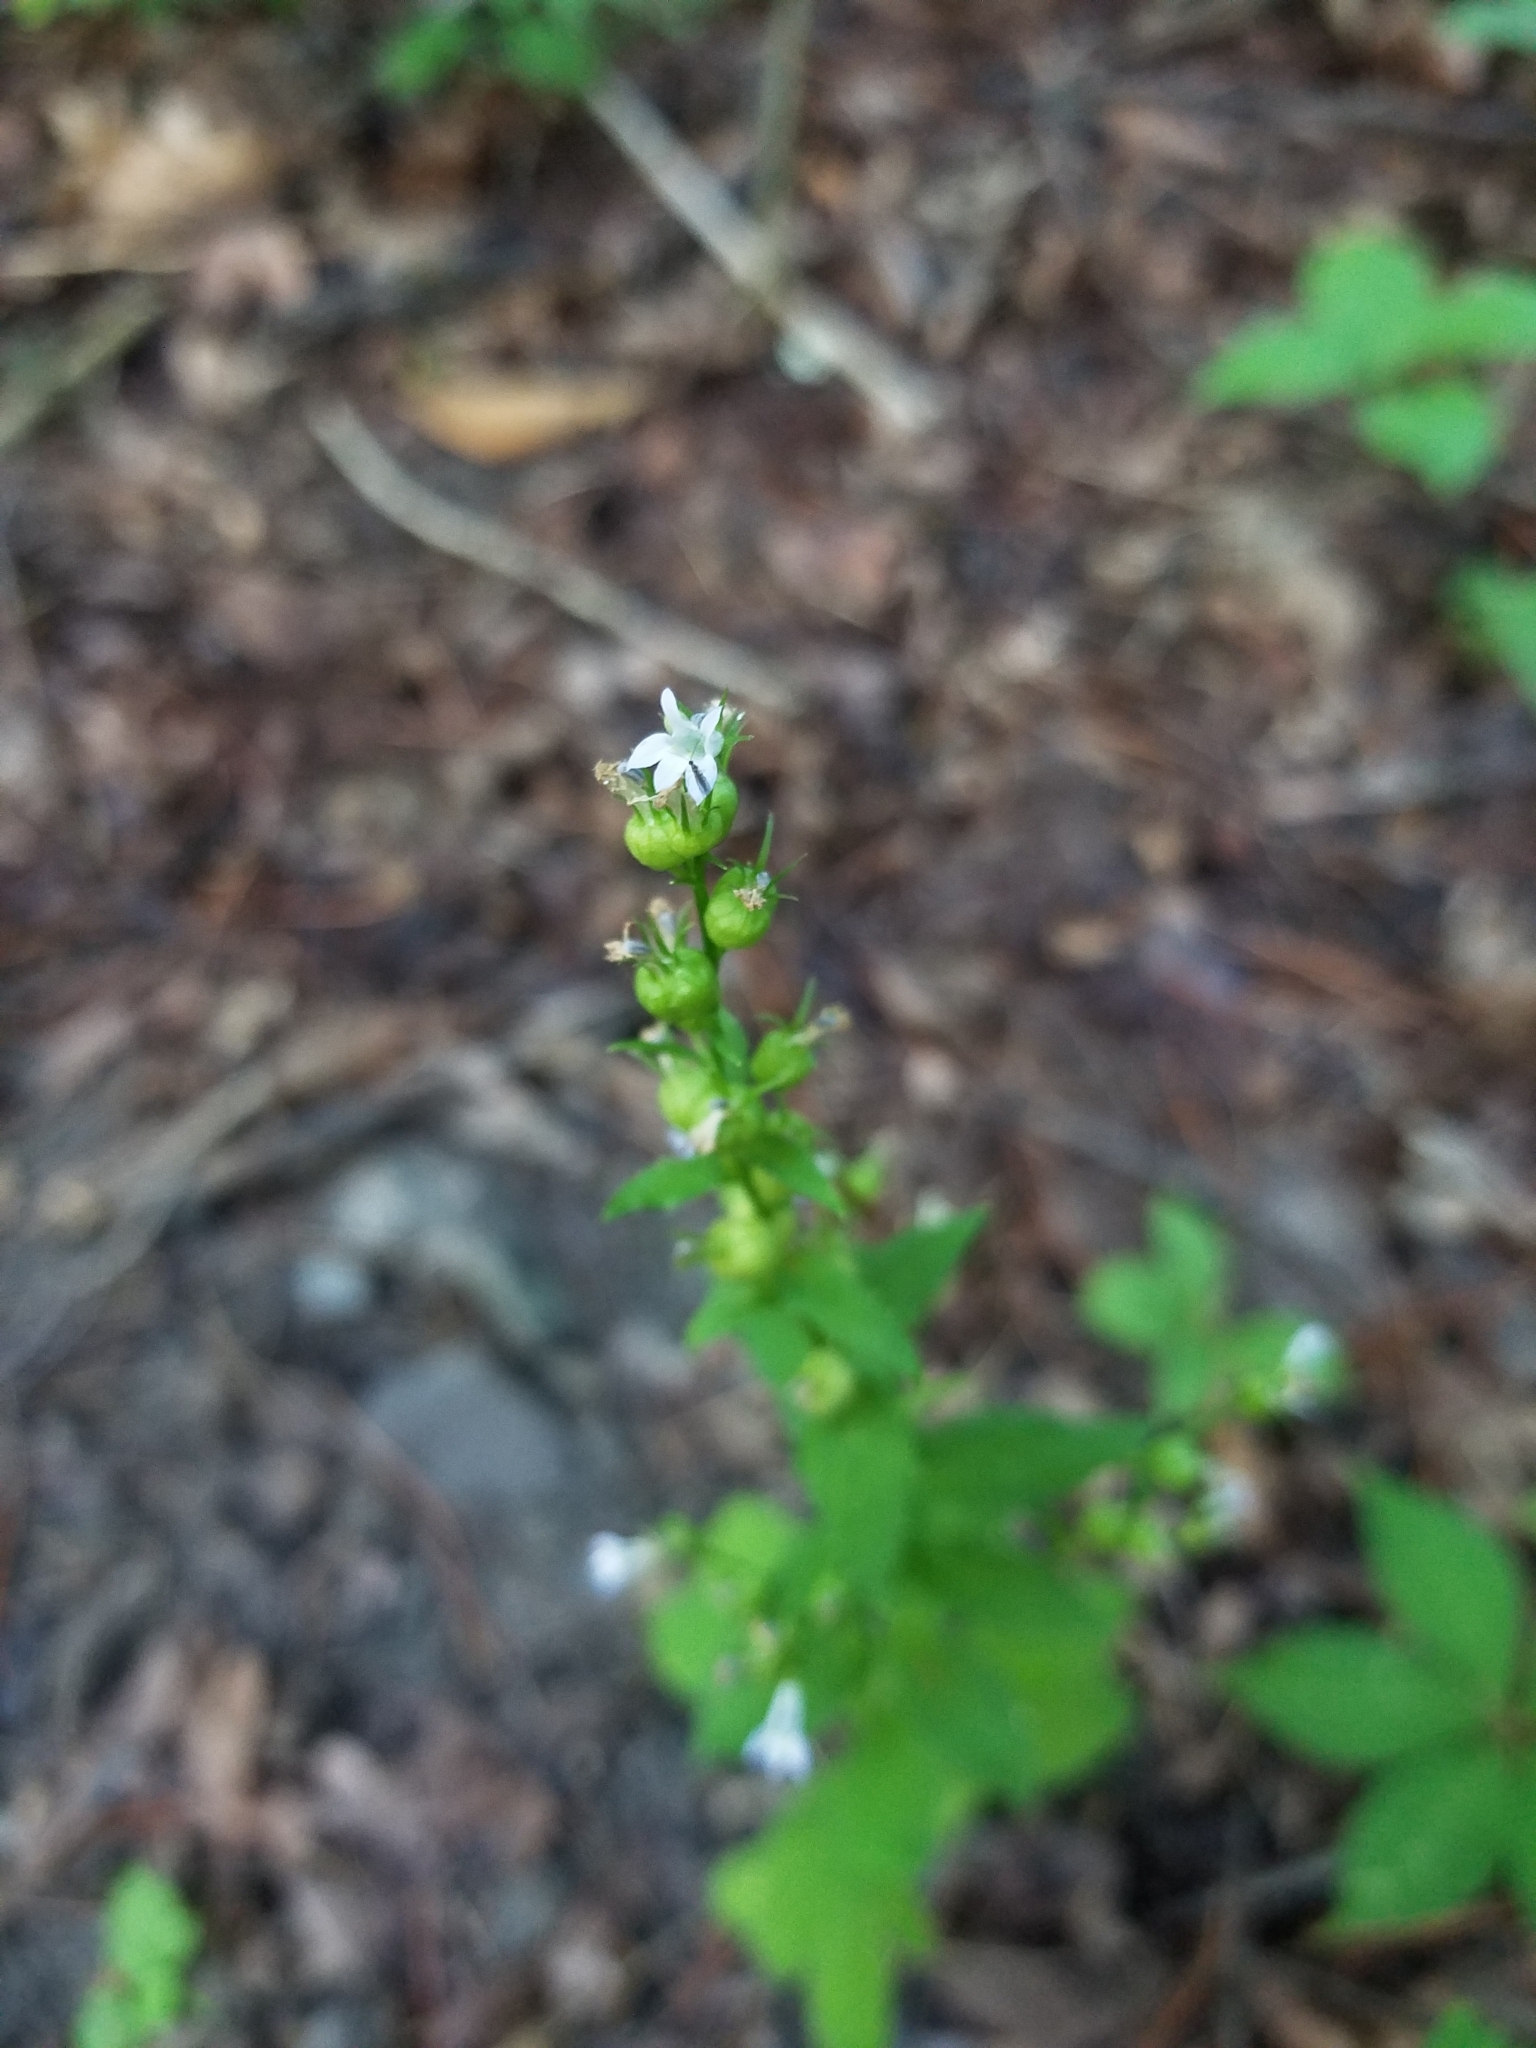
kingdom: Plantae
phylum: Tracheophyta
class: Magnoliopsida
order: Asterales
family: Campanulaceae
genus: Lobelia
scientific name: Lobelia inflata
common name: Indian tobacco
